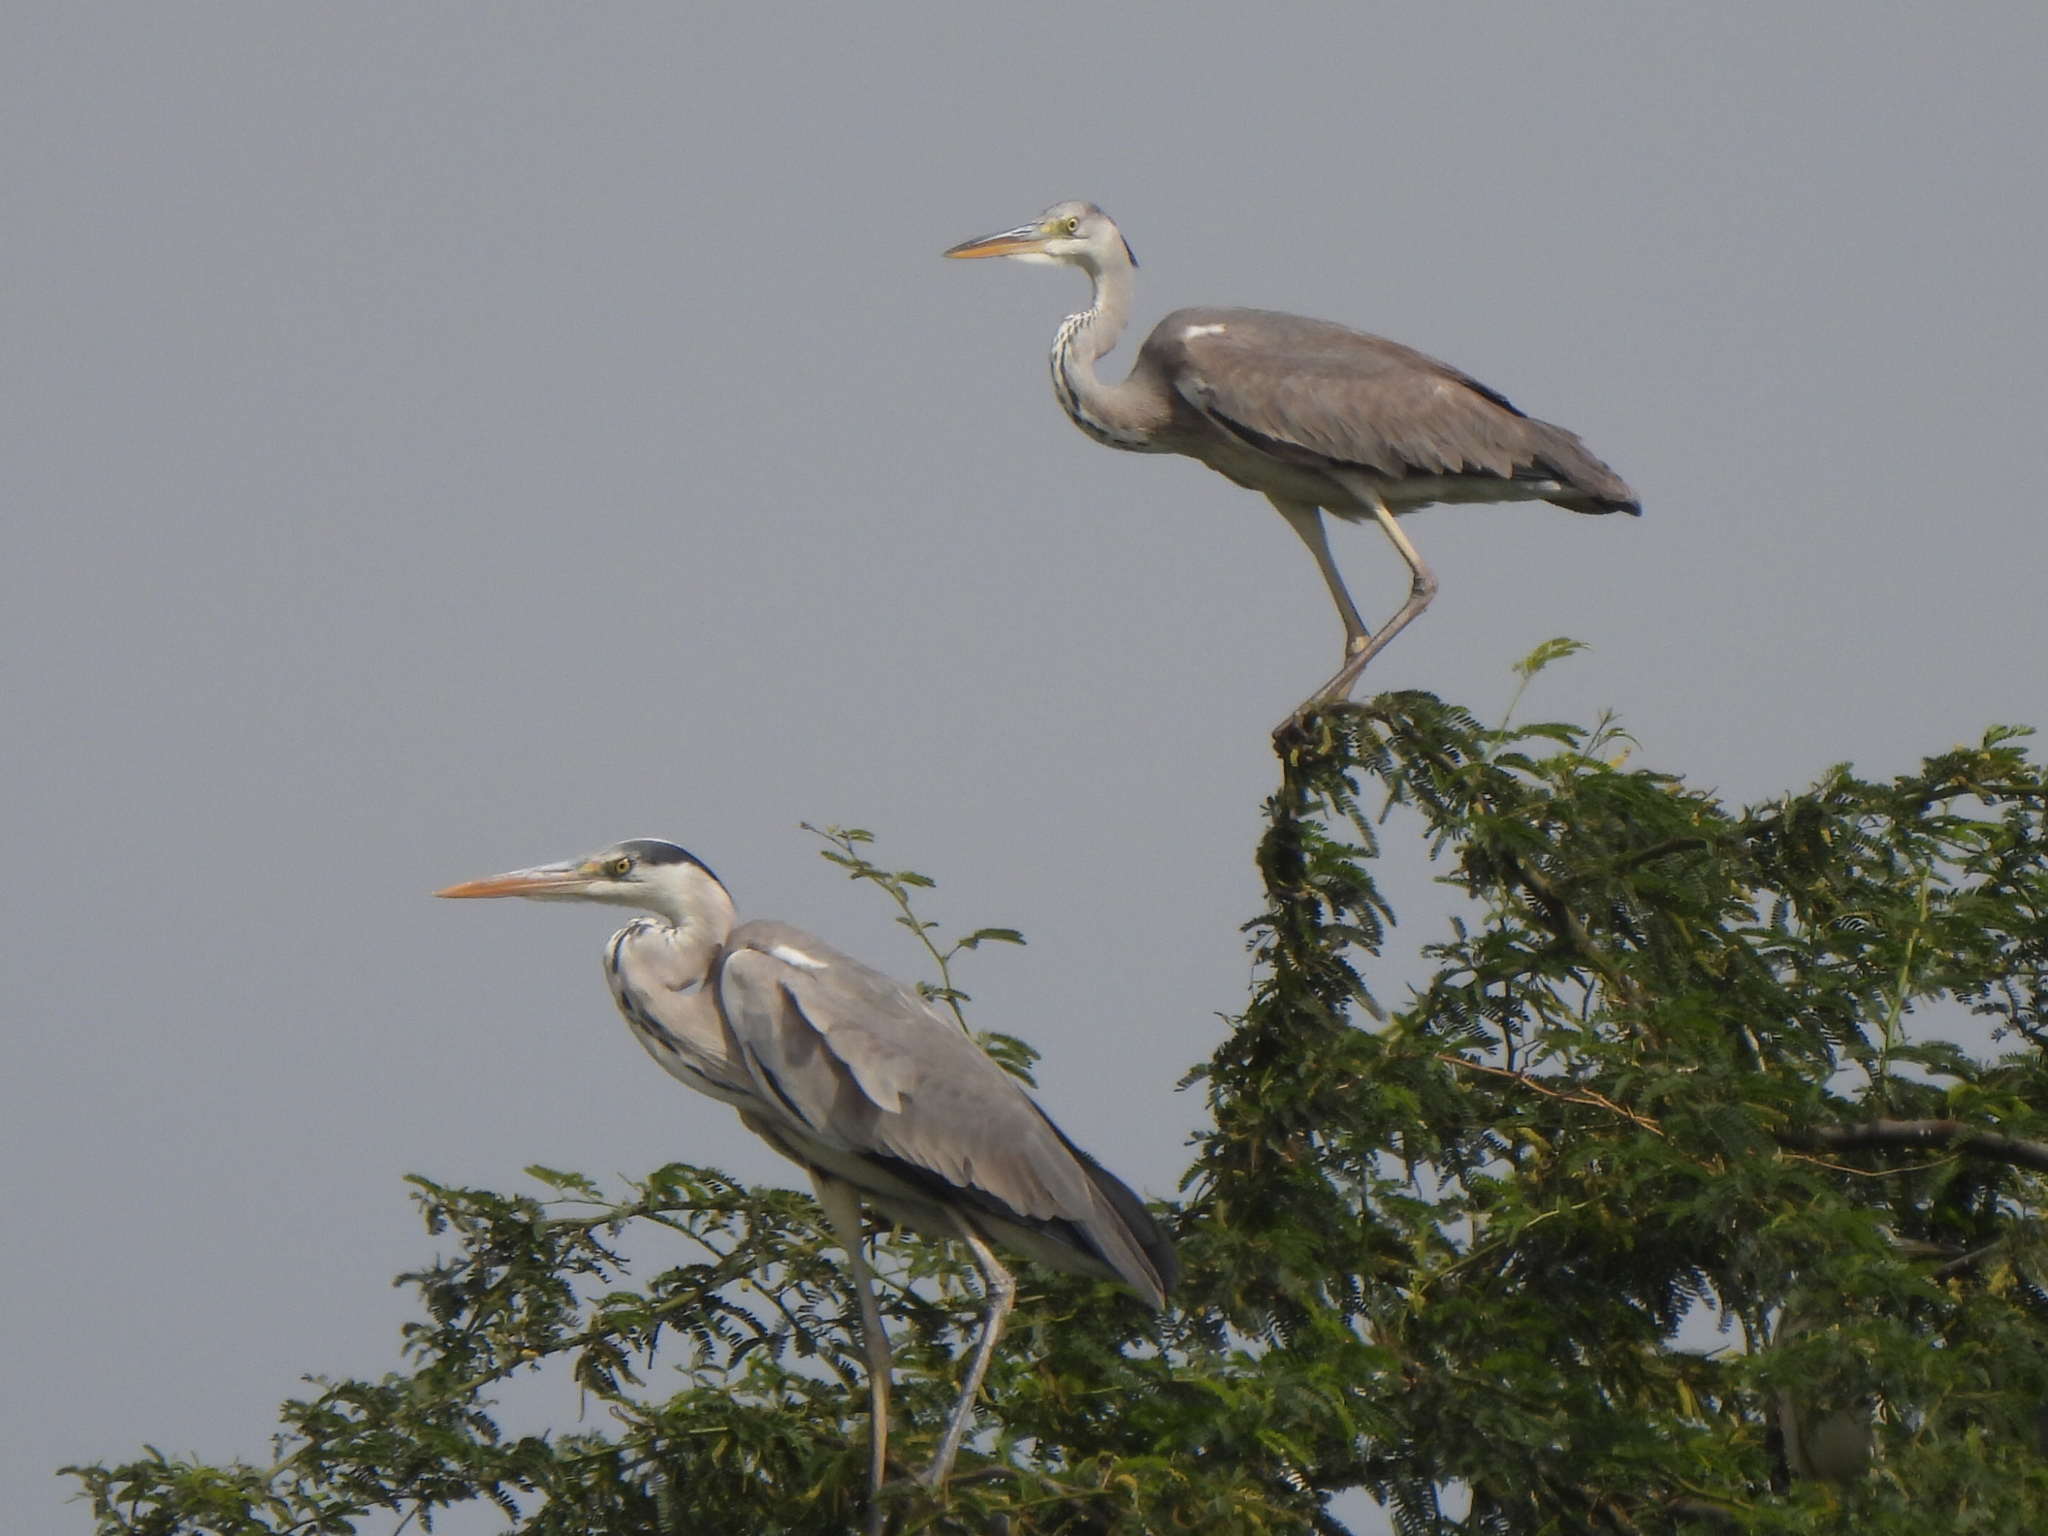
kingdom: Animalia
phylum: Chordata
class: Aves
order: Pelecaniformes
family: Ardeidae
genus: Ardea
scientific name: Ardea cinerea
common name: Grey heron
